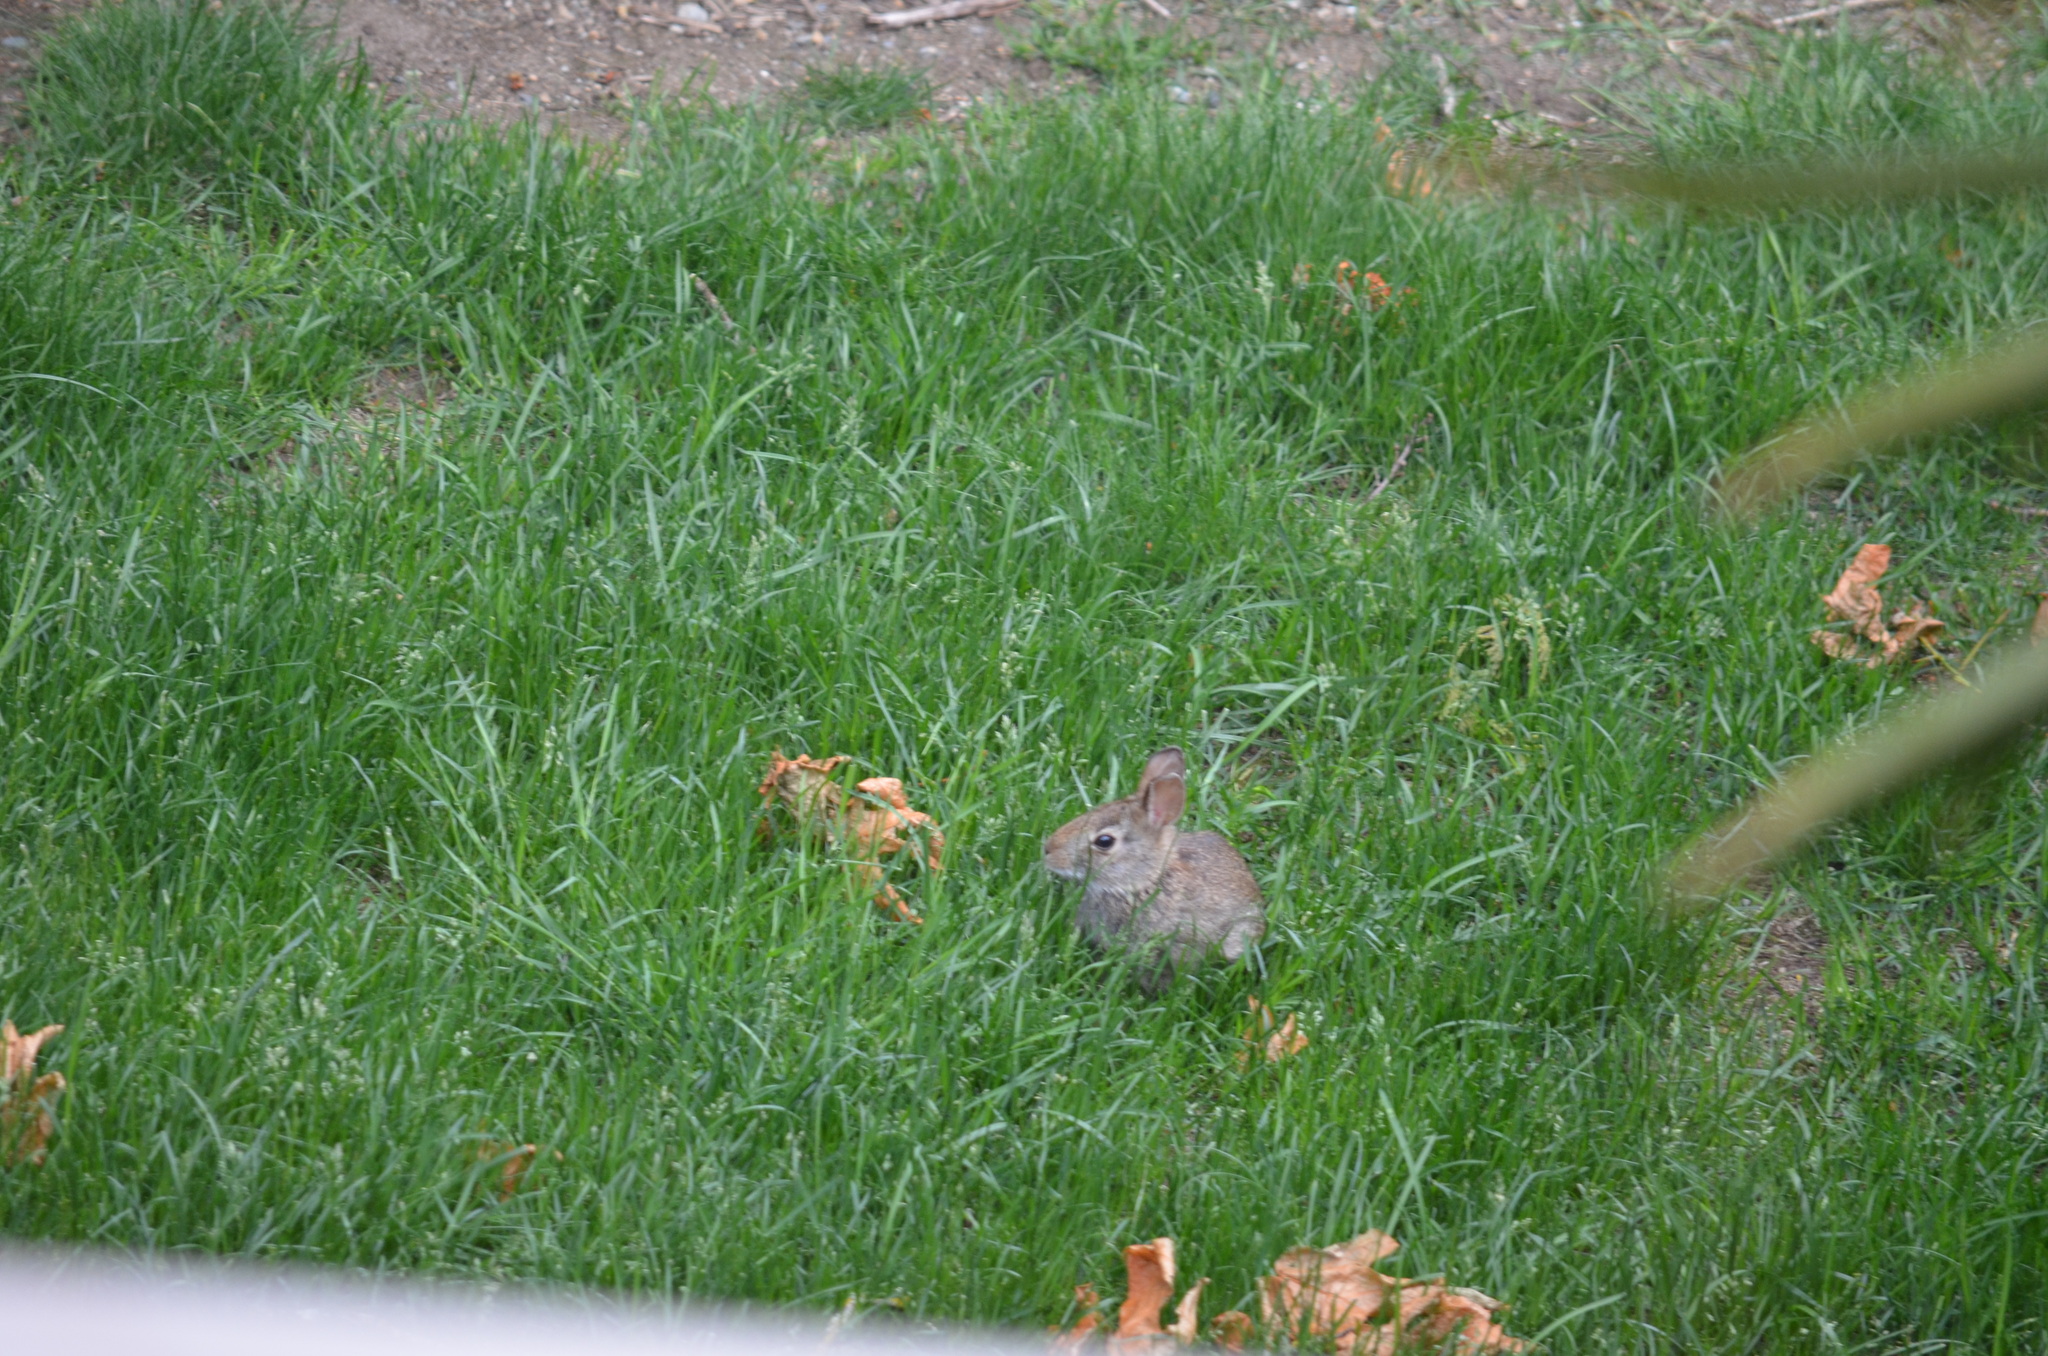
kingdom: Animalia
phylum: Chordata
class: Mammalia
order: Lagomorpha
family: Leporidae
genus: Sylvilagus
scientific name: Sylvilagus floridanus
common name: Eastern cottontail
